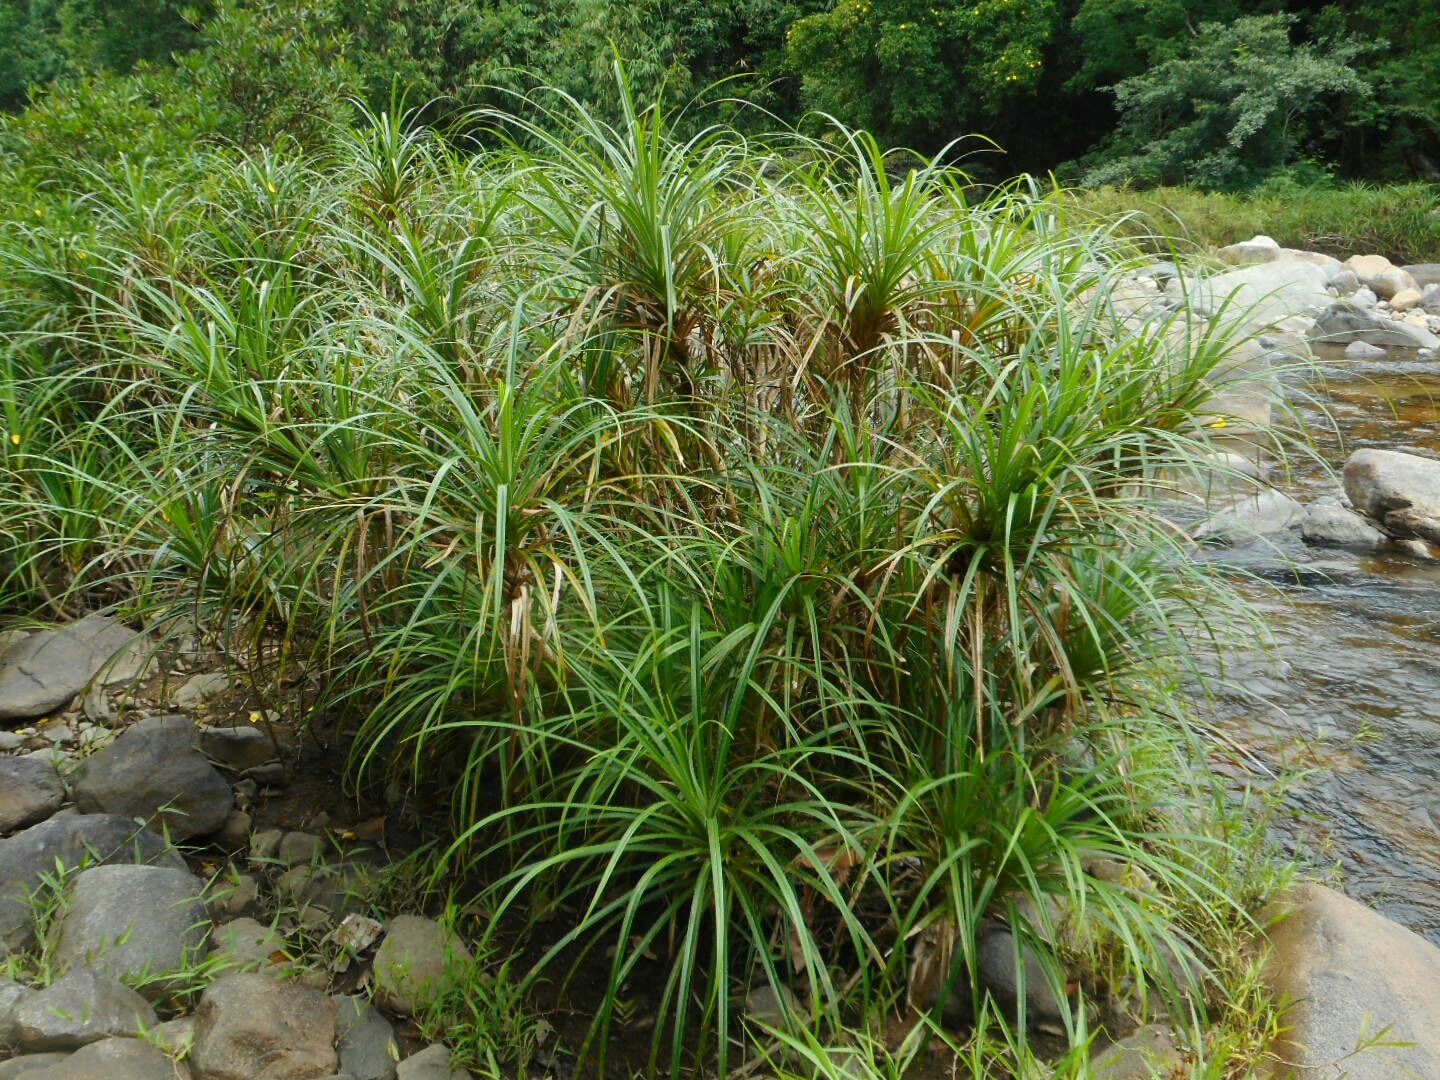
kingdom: Plantae
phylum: Tracheophyta
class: Liliopsida
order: Pandanales
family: Pandanaceae
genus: Pandanus
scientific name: Pandanus fibrosus
